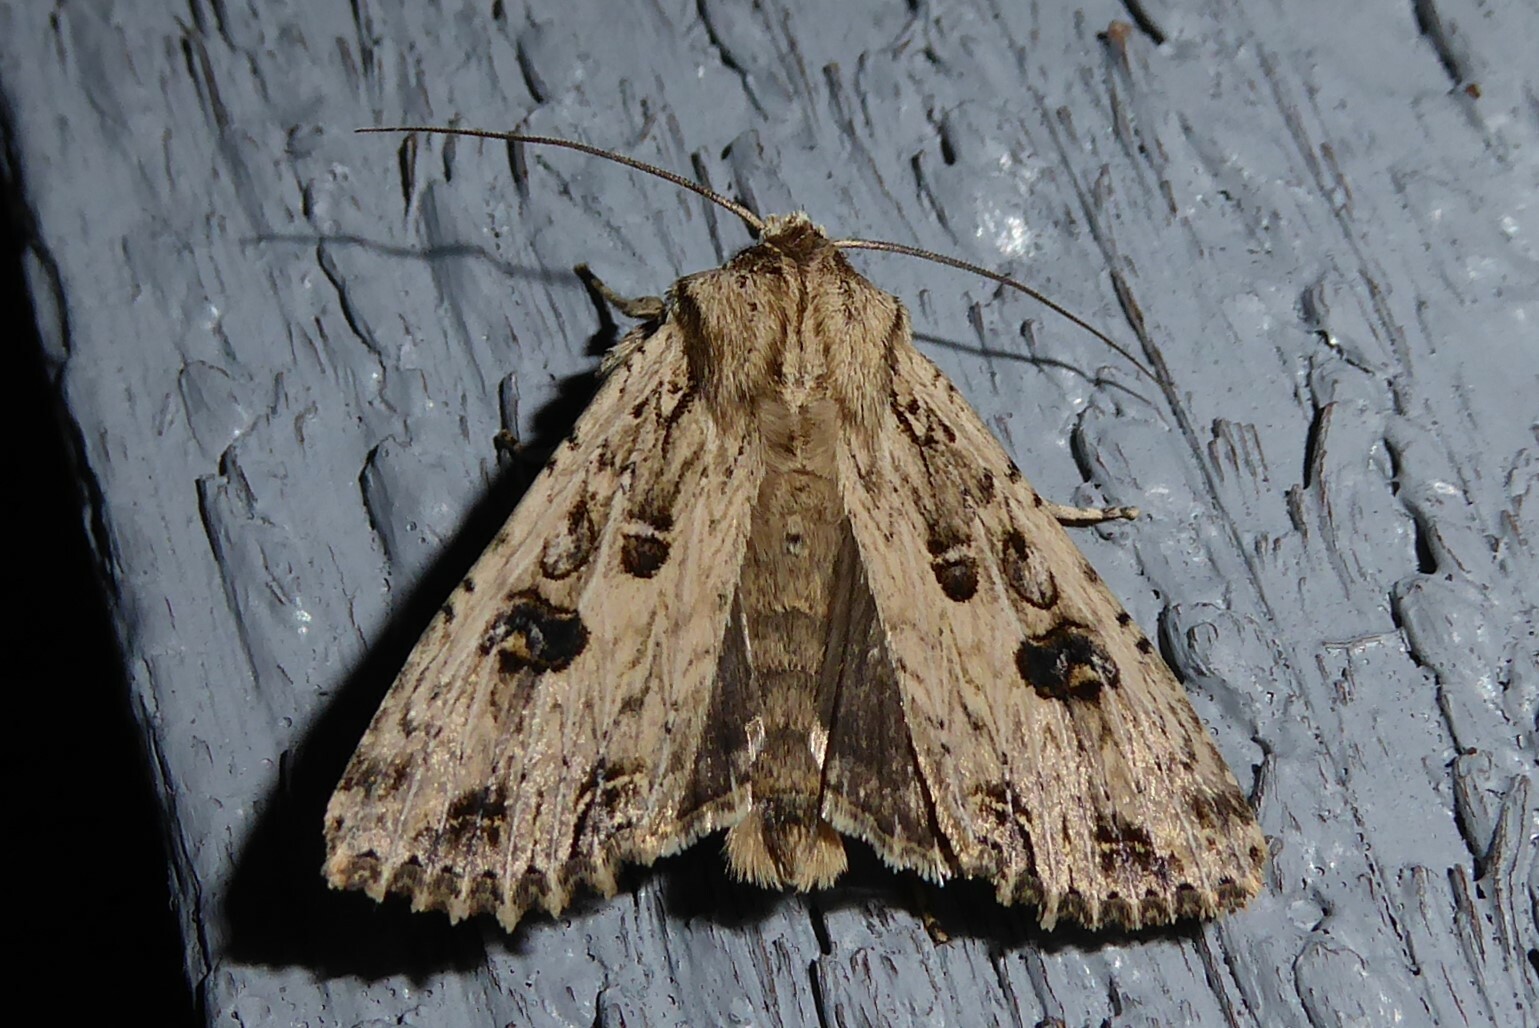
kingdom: Animalia
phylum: Arthropoda
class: Insecta
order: Lepidoptera
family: Noctuidae
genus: Ichneutica
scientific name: Ichneutica lignana
